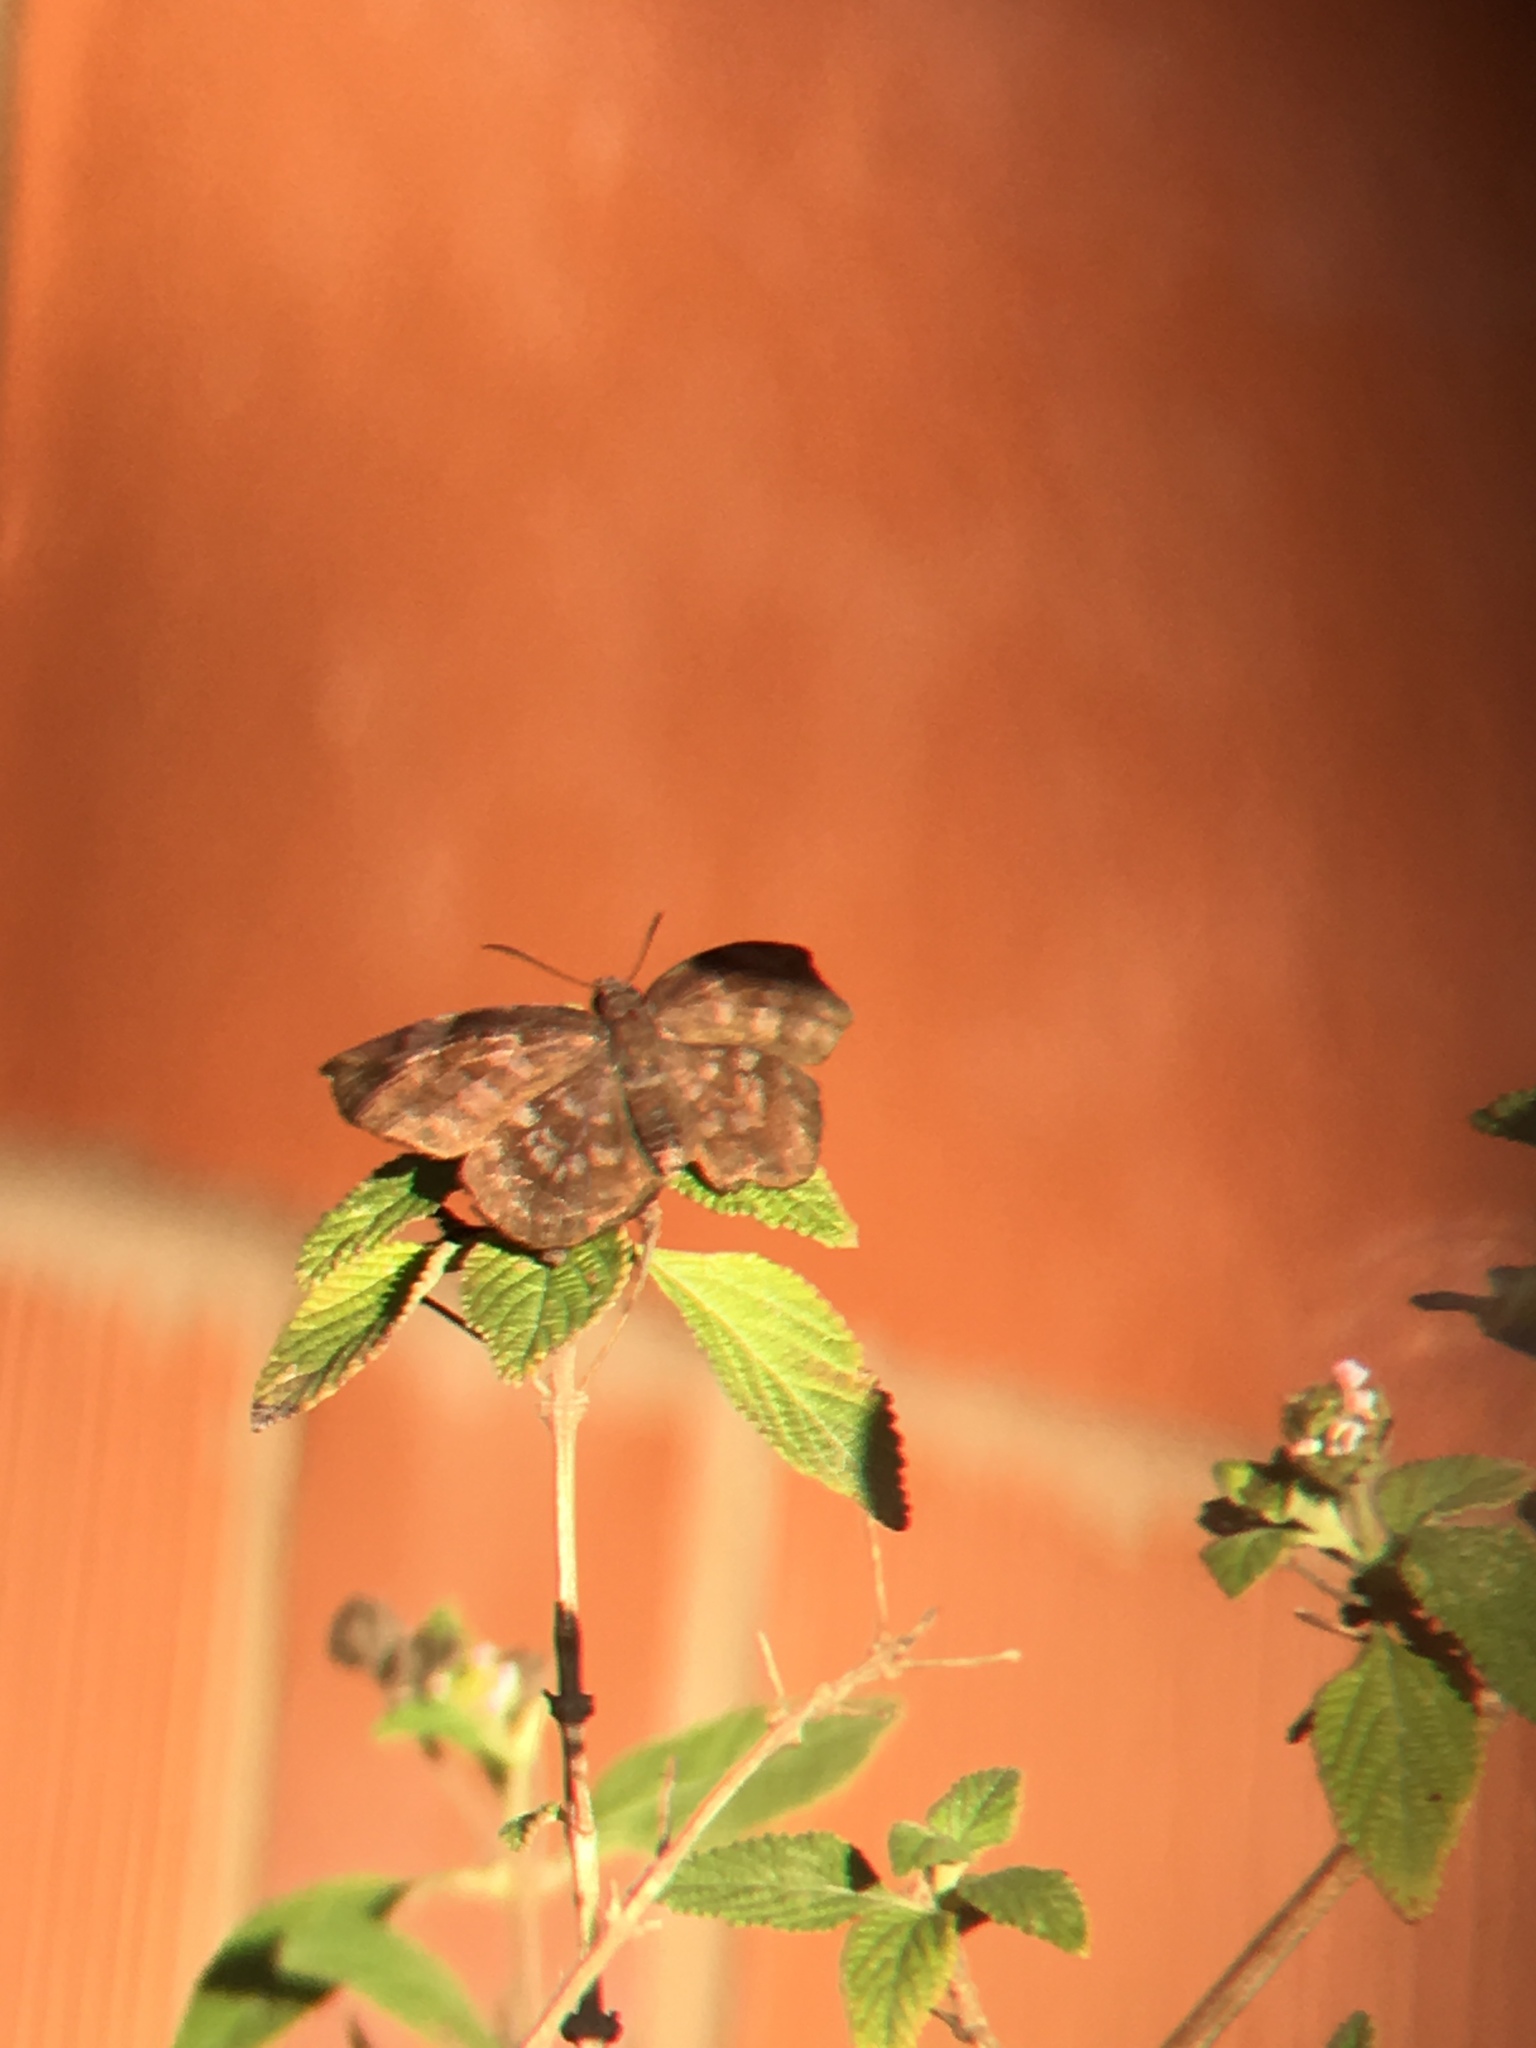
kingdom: Animalia
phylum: Arthropoda
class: Insecta
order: Lepidoptera
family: Hesperiidae
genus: Achlyodes
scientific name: Achlyodes thraso
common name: Sickle-winged skipper
